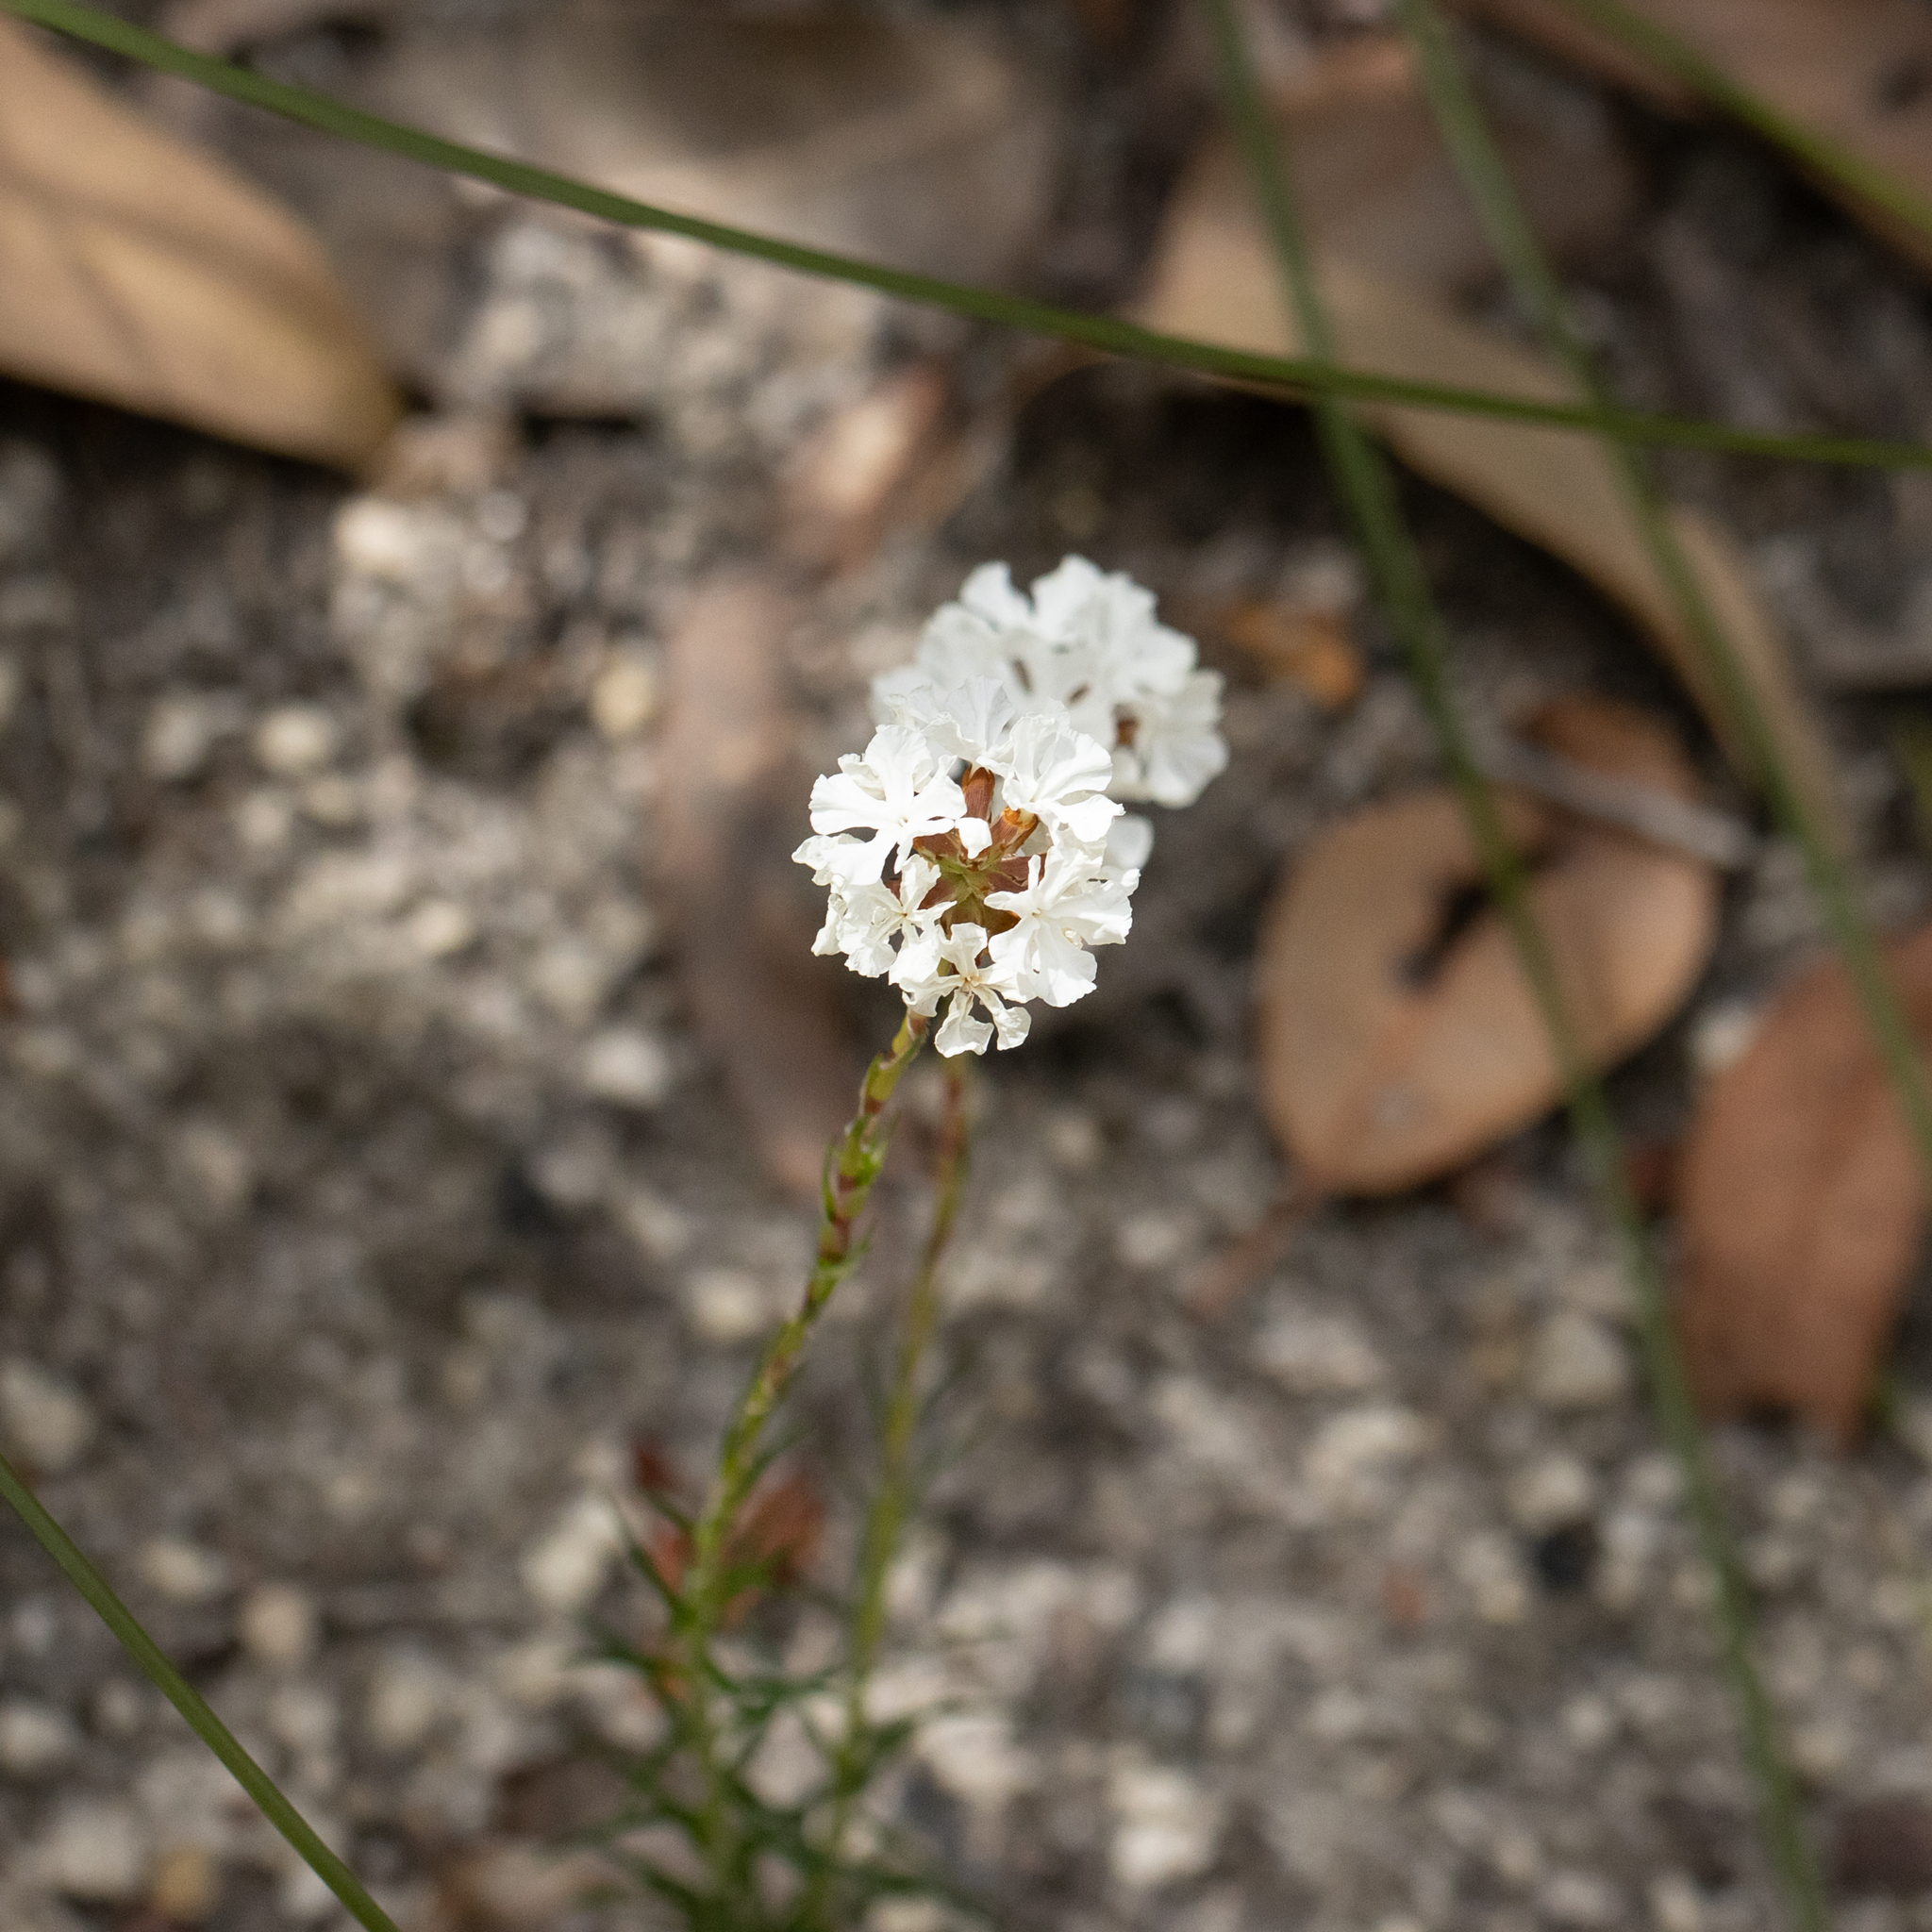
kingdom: Plantae
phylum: Tracheophyta
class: Magnoliopsida
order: Ericales
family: Ericaceae
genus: Sphenotoma
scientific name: Sphenotoma gracilis
